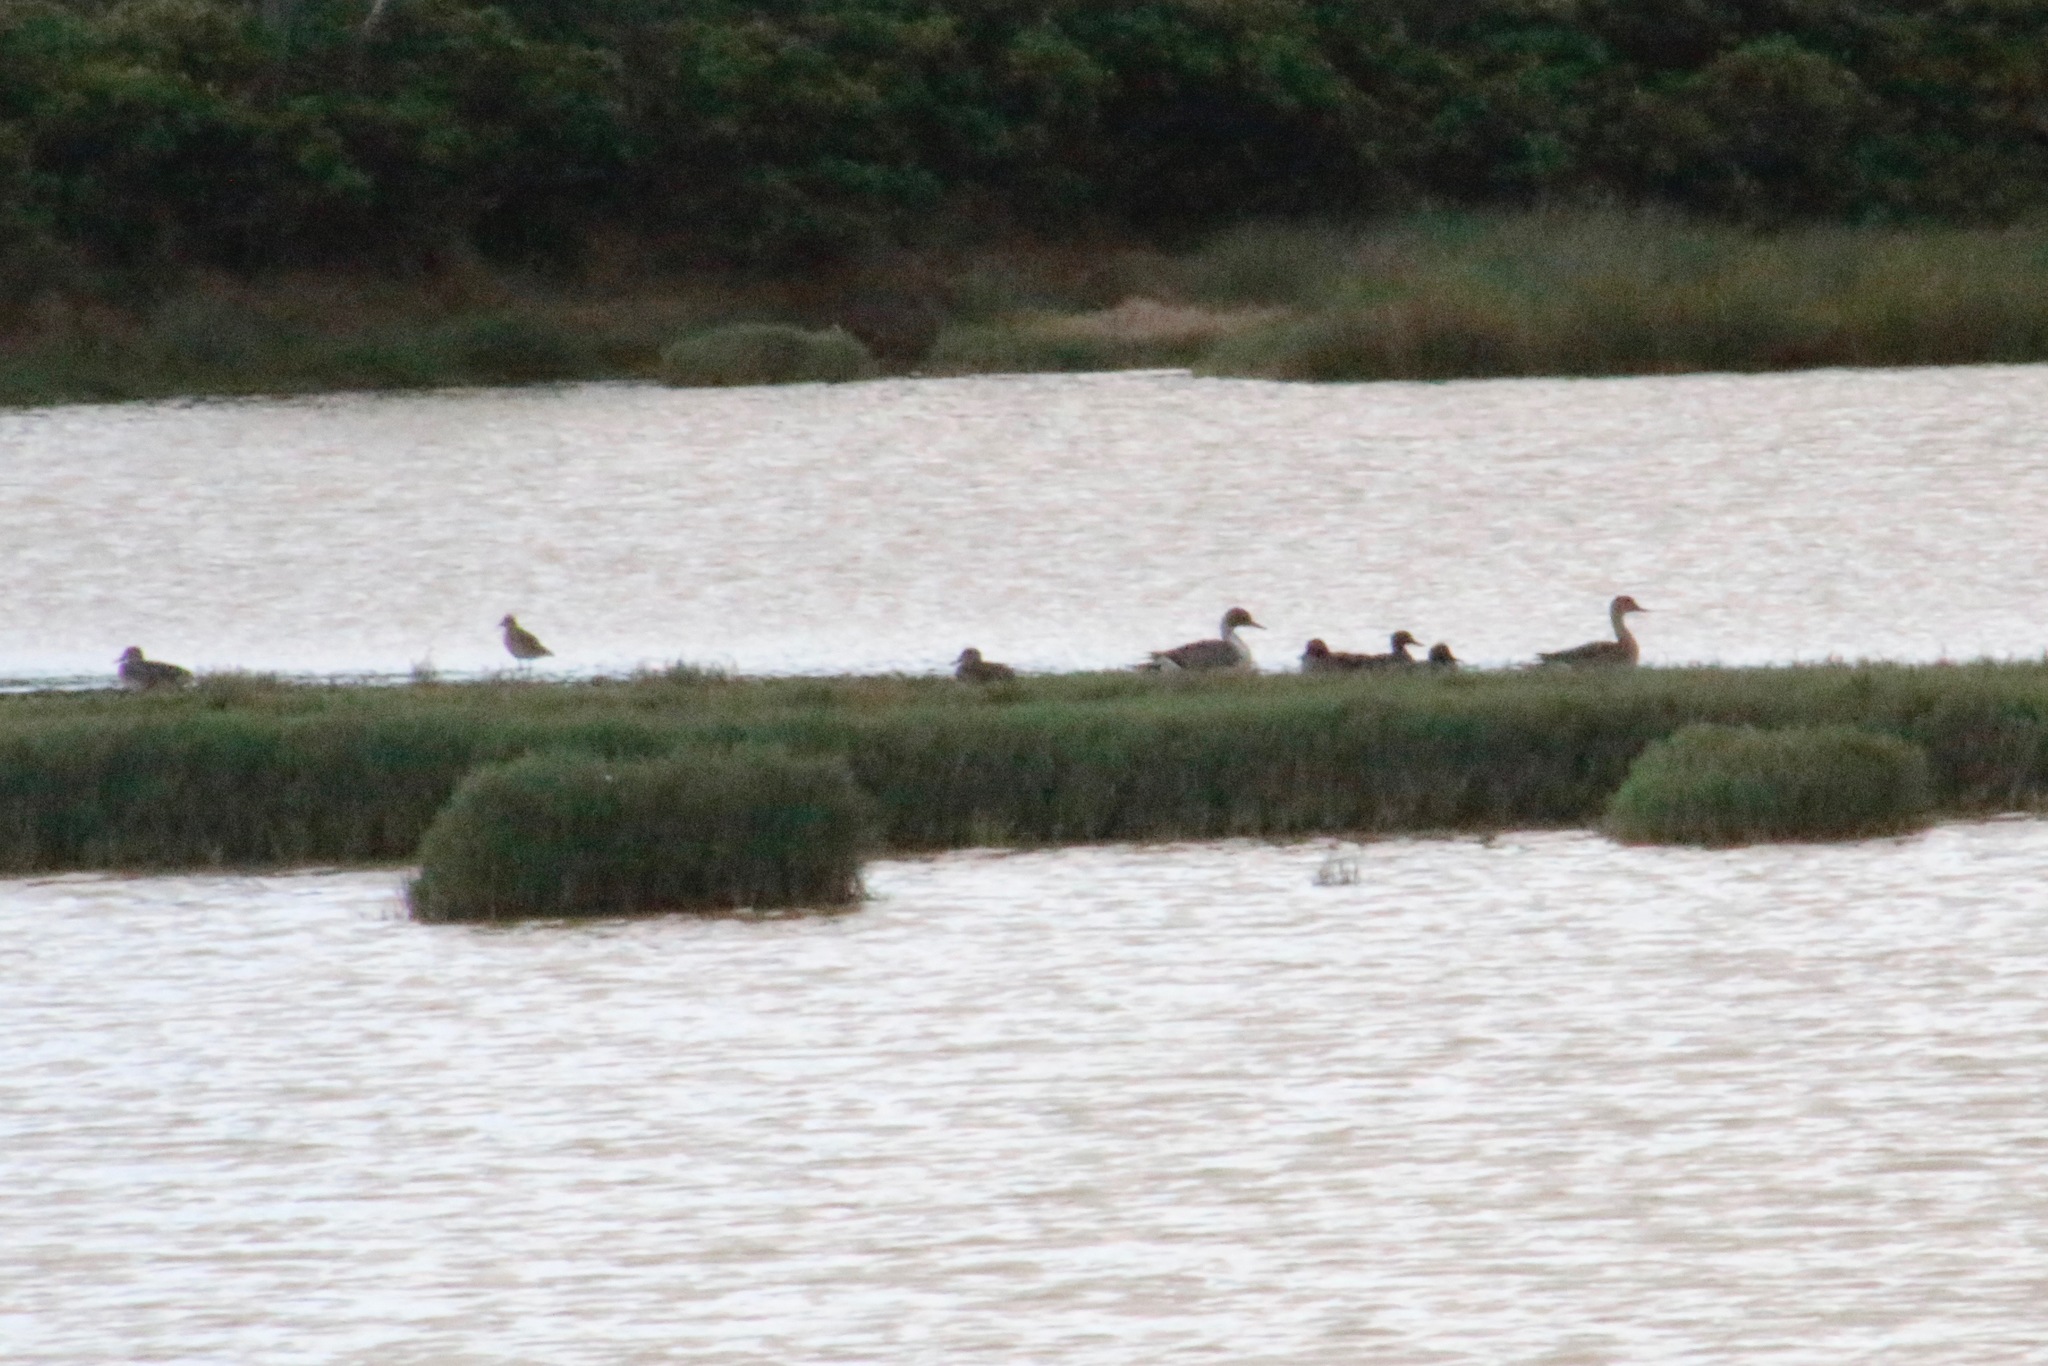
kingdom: Animalia
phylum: Chordata
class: Aves
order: Anseriformes
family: Anatidae
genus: Anas
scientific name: Anas crecca
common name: Eurasian teal
